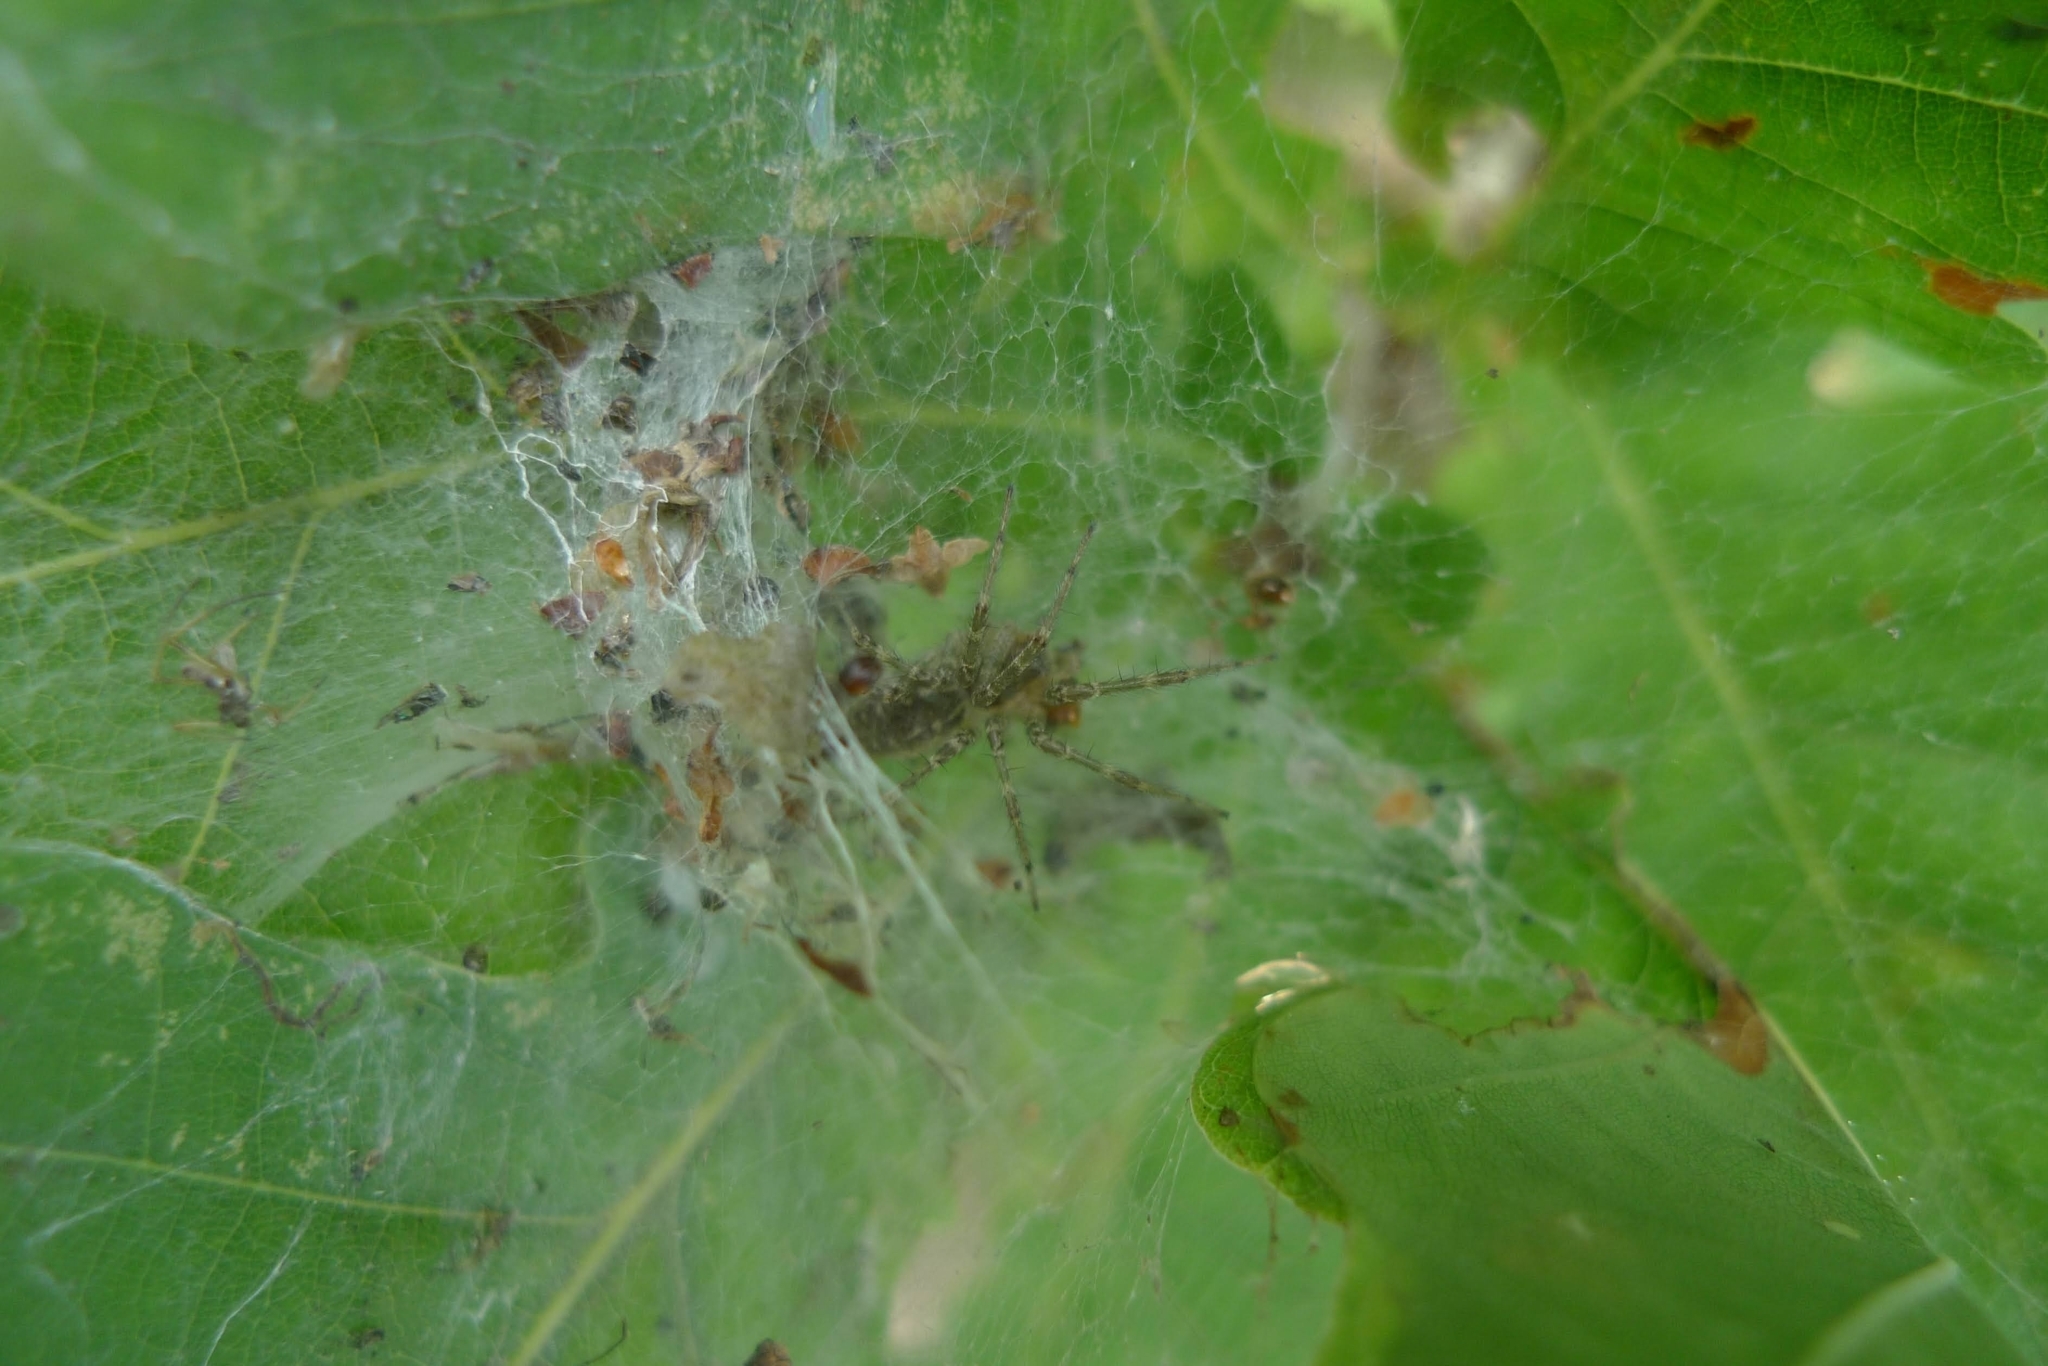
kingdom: Animalia
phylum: Arthropoda
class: Arachnida
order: Araneae
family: Agelenidae
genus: Allagelena
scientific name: Allagelena gracilens
